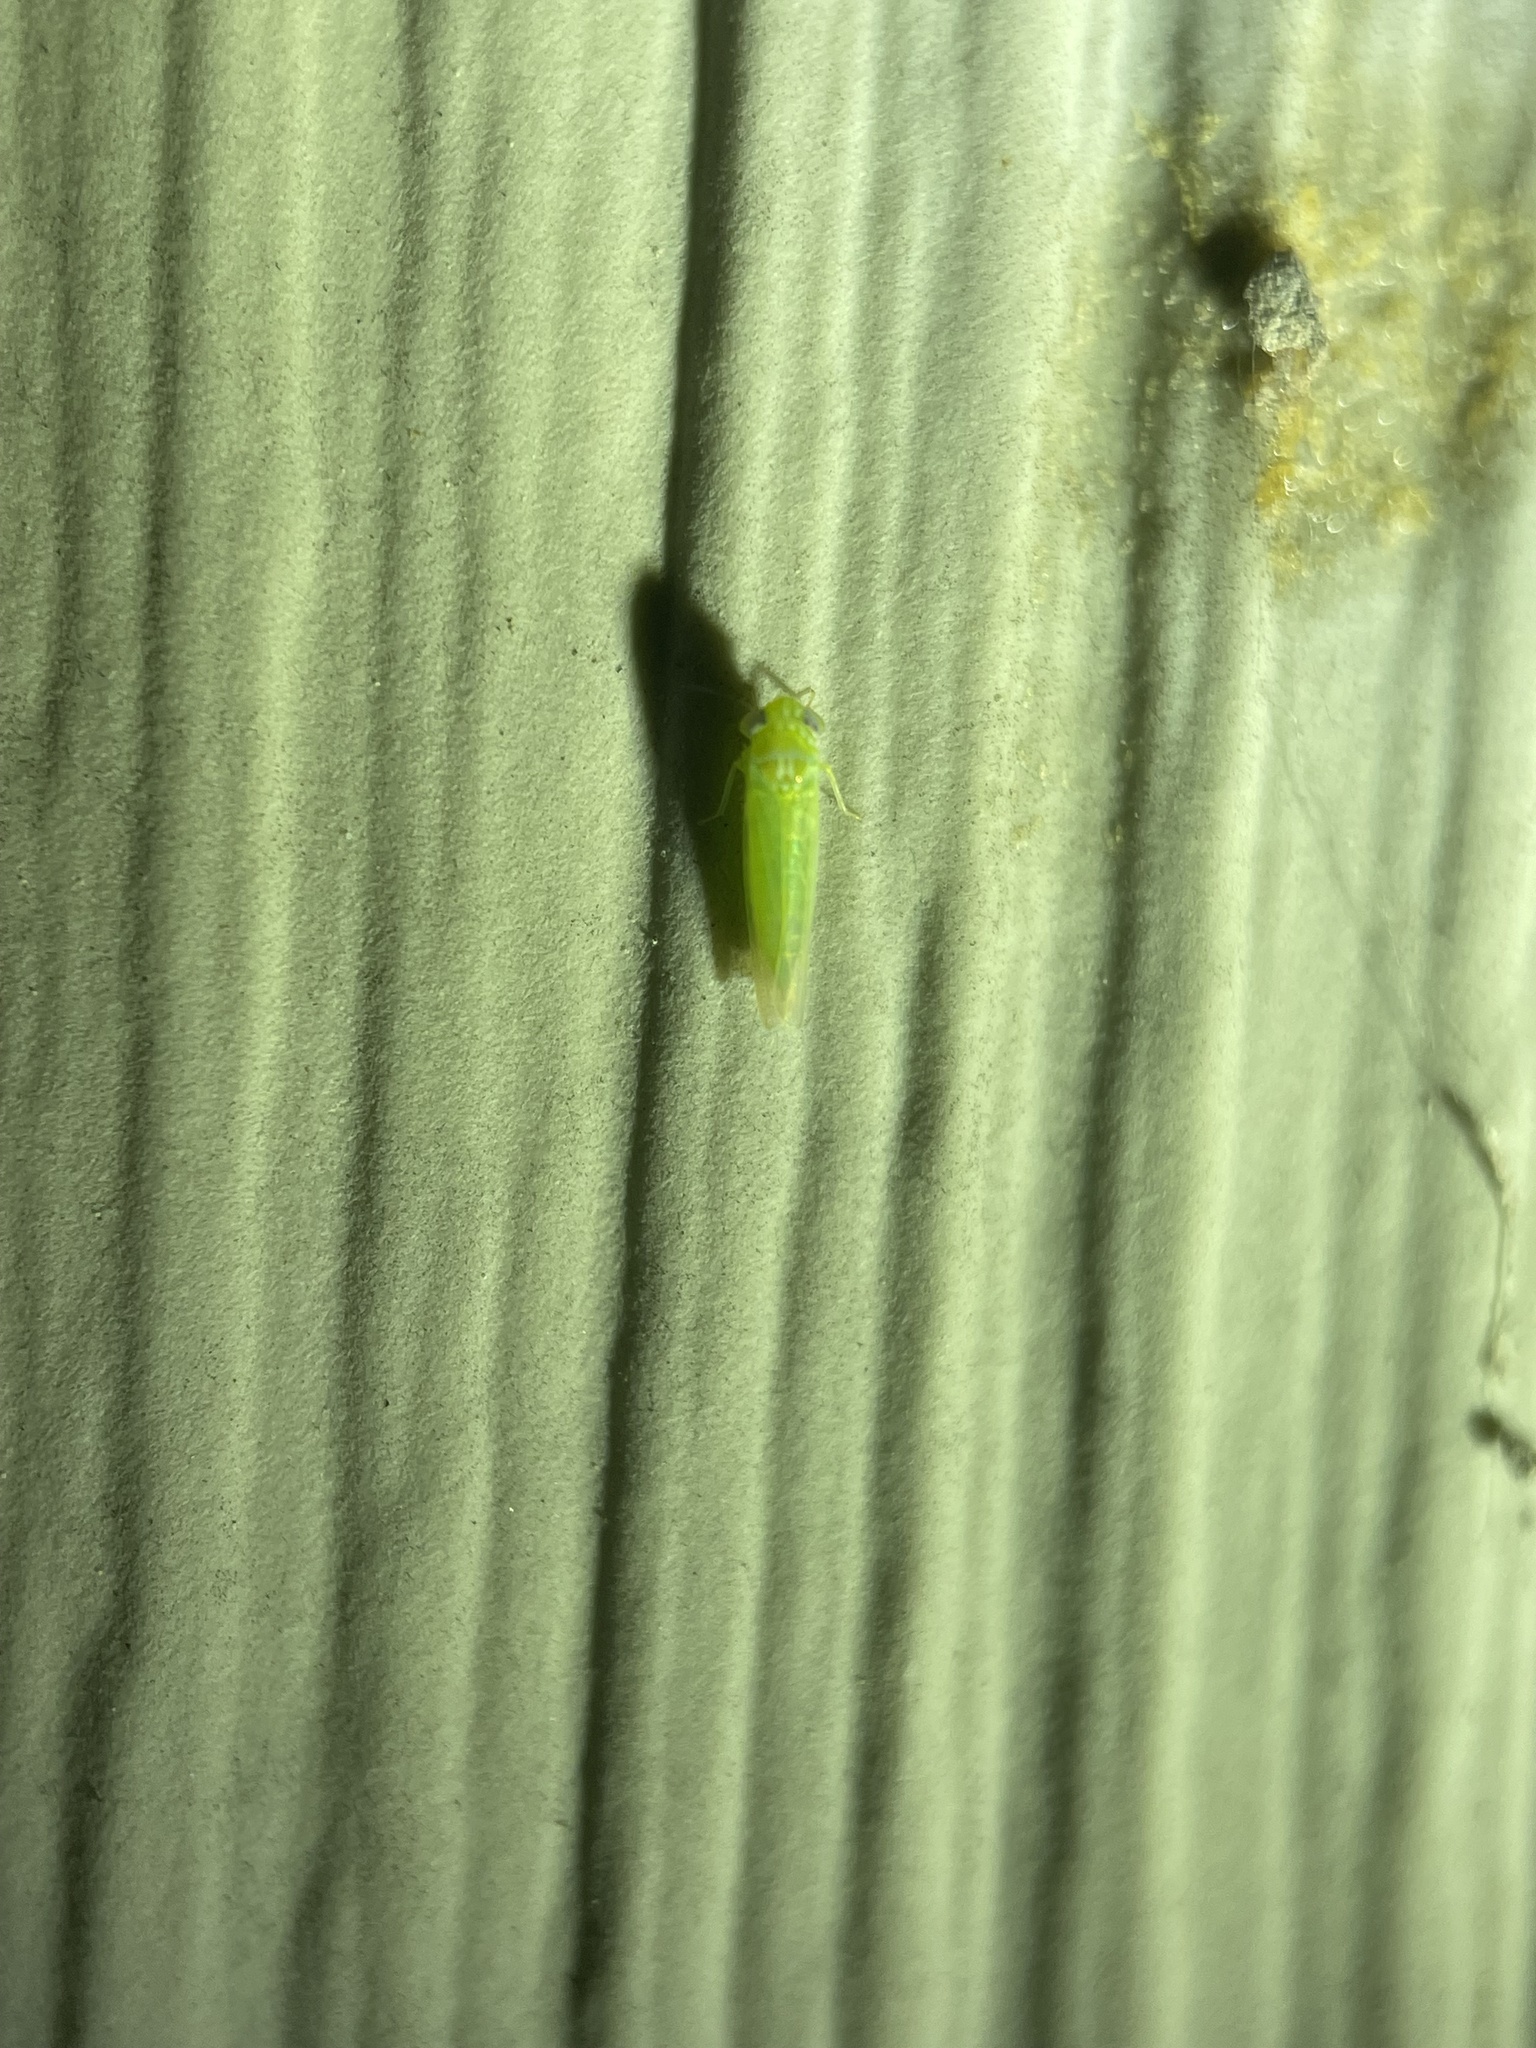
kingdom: Animalia
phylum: Arthropoda
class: Insecta
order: Hemiptera
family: Cicadellidae
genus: Empoasca
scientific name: Empoasca fabae
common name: Potato leafhopper
